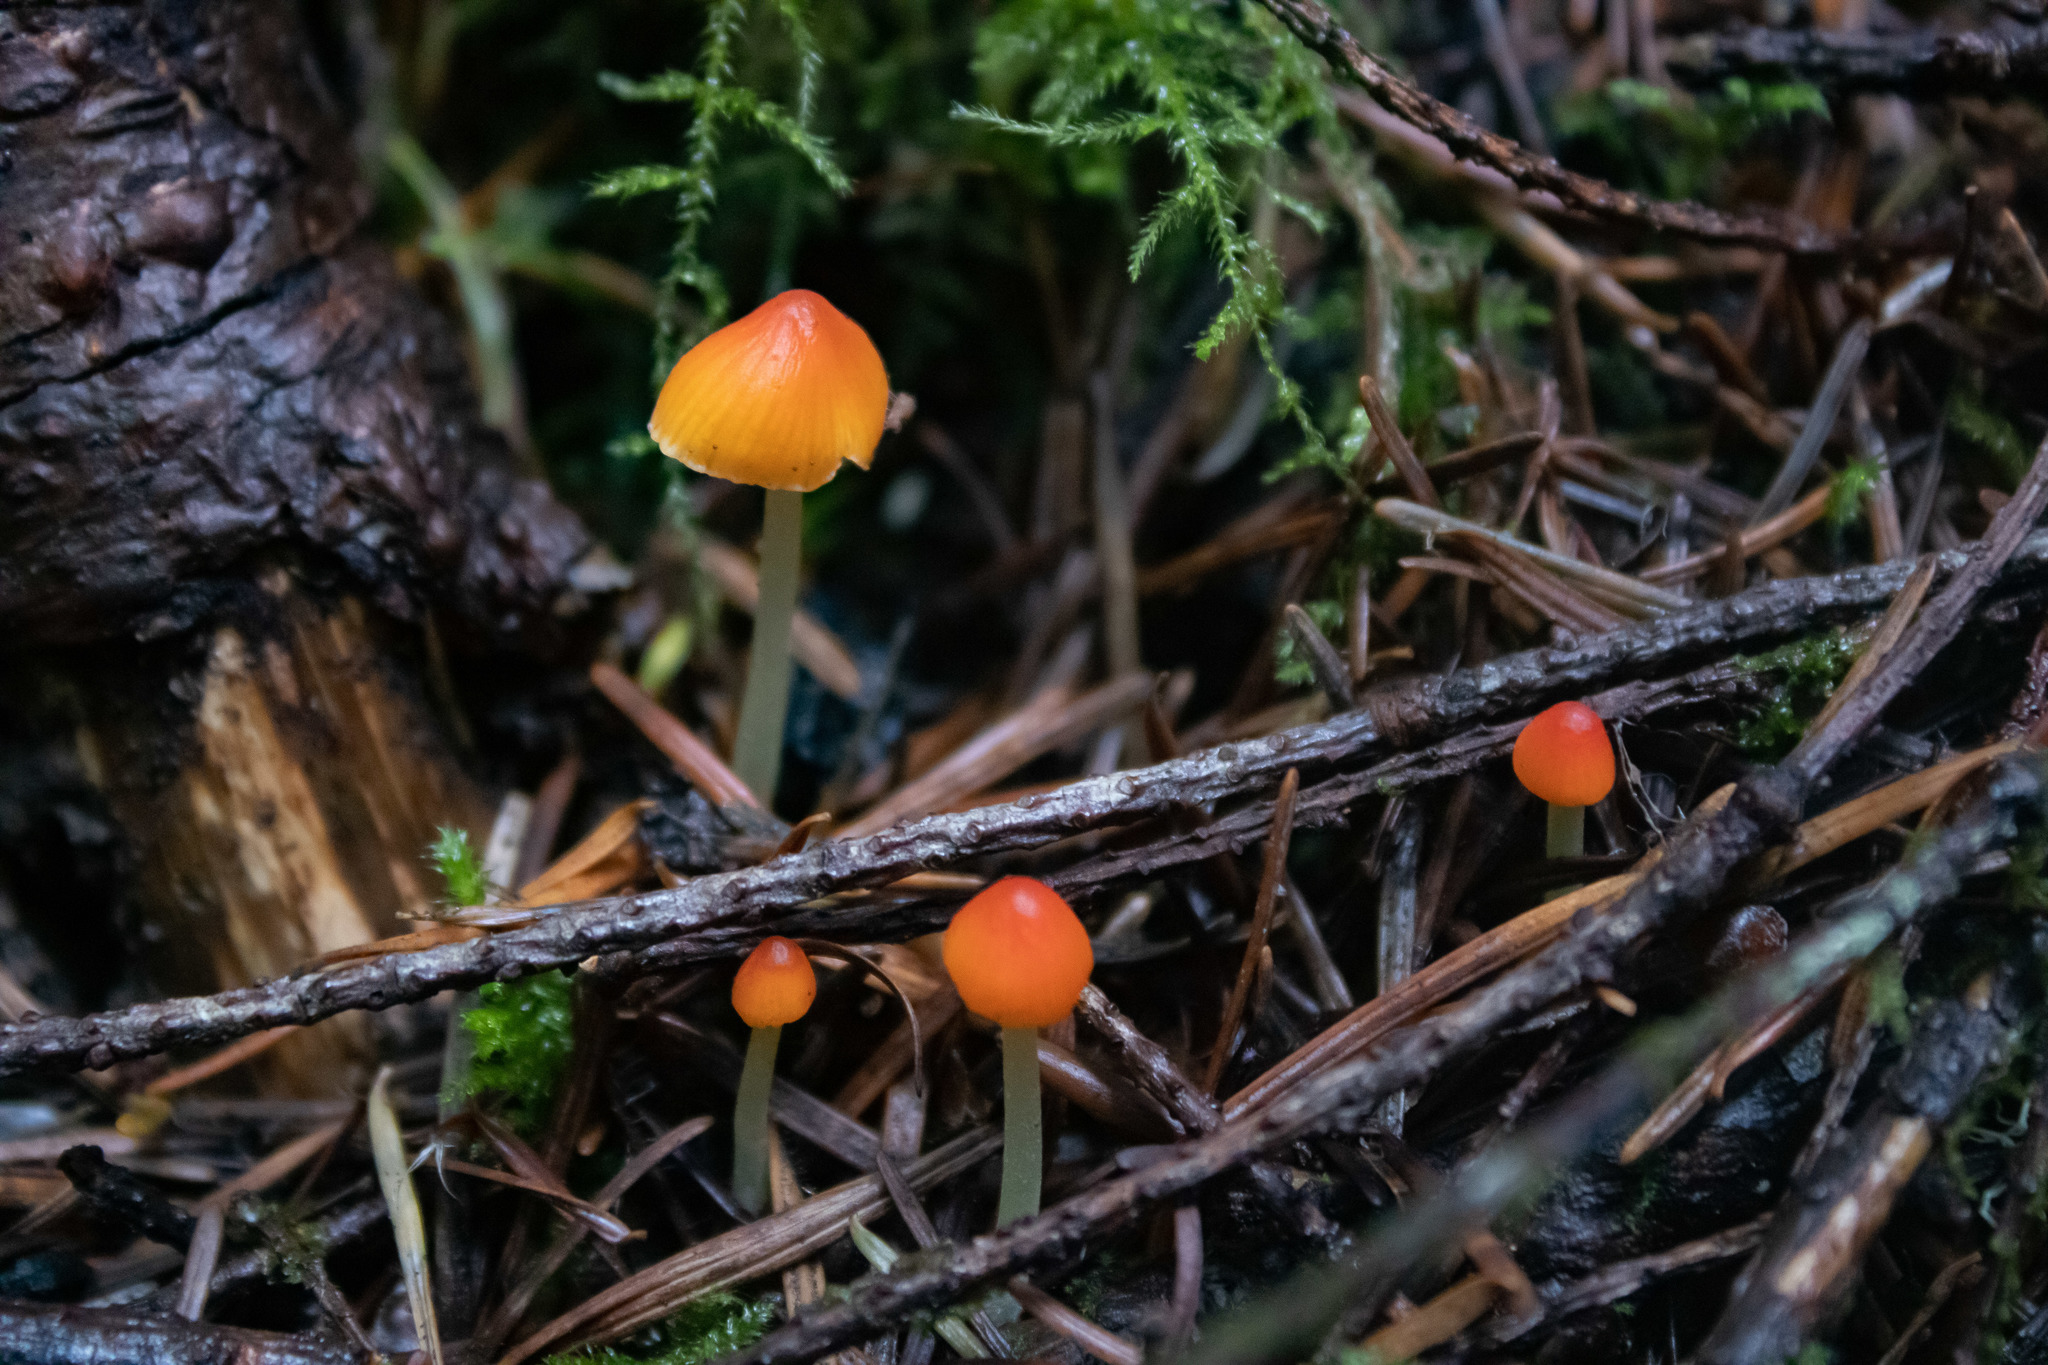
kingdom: Fungi
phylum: Basidiomycota
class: Agaricomycetes
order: Agaricales
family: Mycenaceae
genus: Mycena
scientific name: Mycena acicula
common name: Orange bonnet
